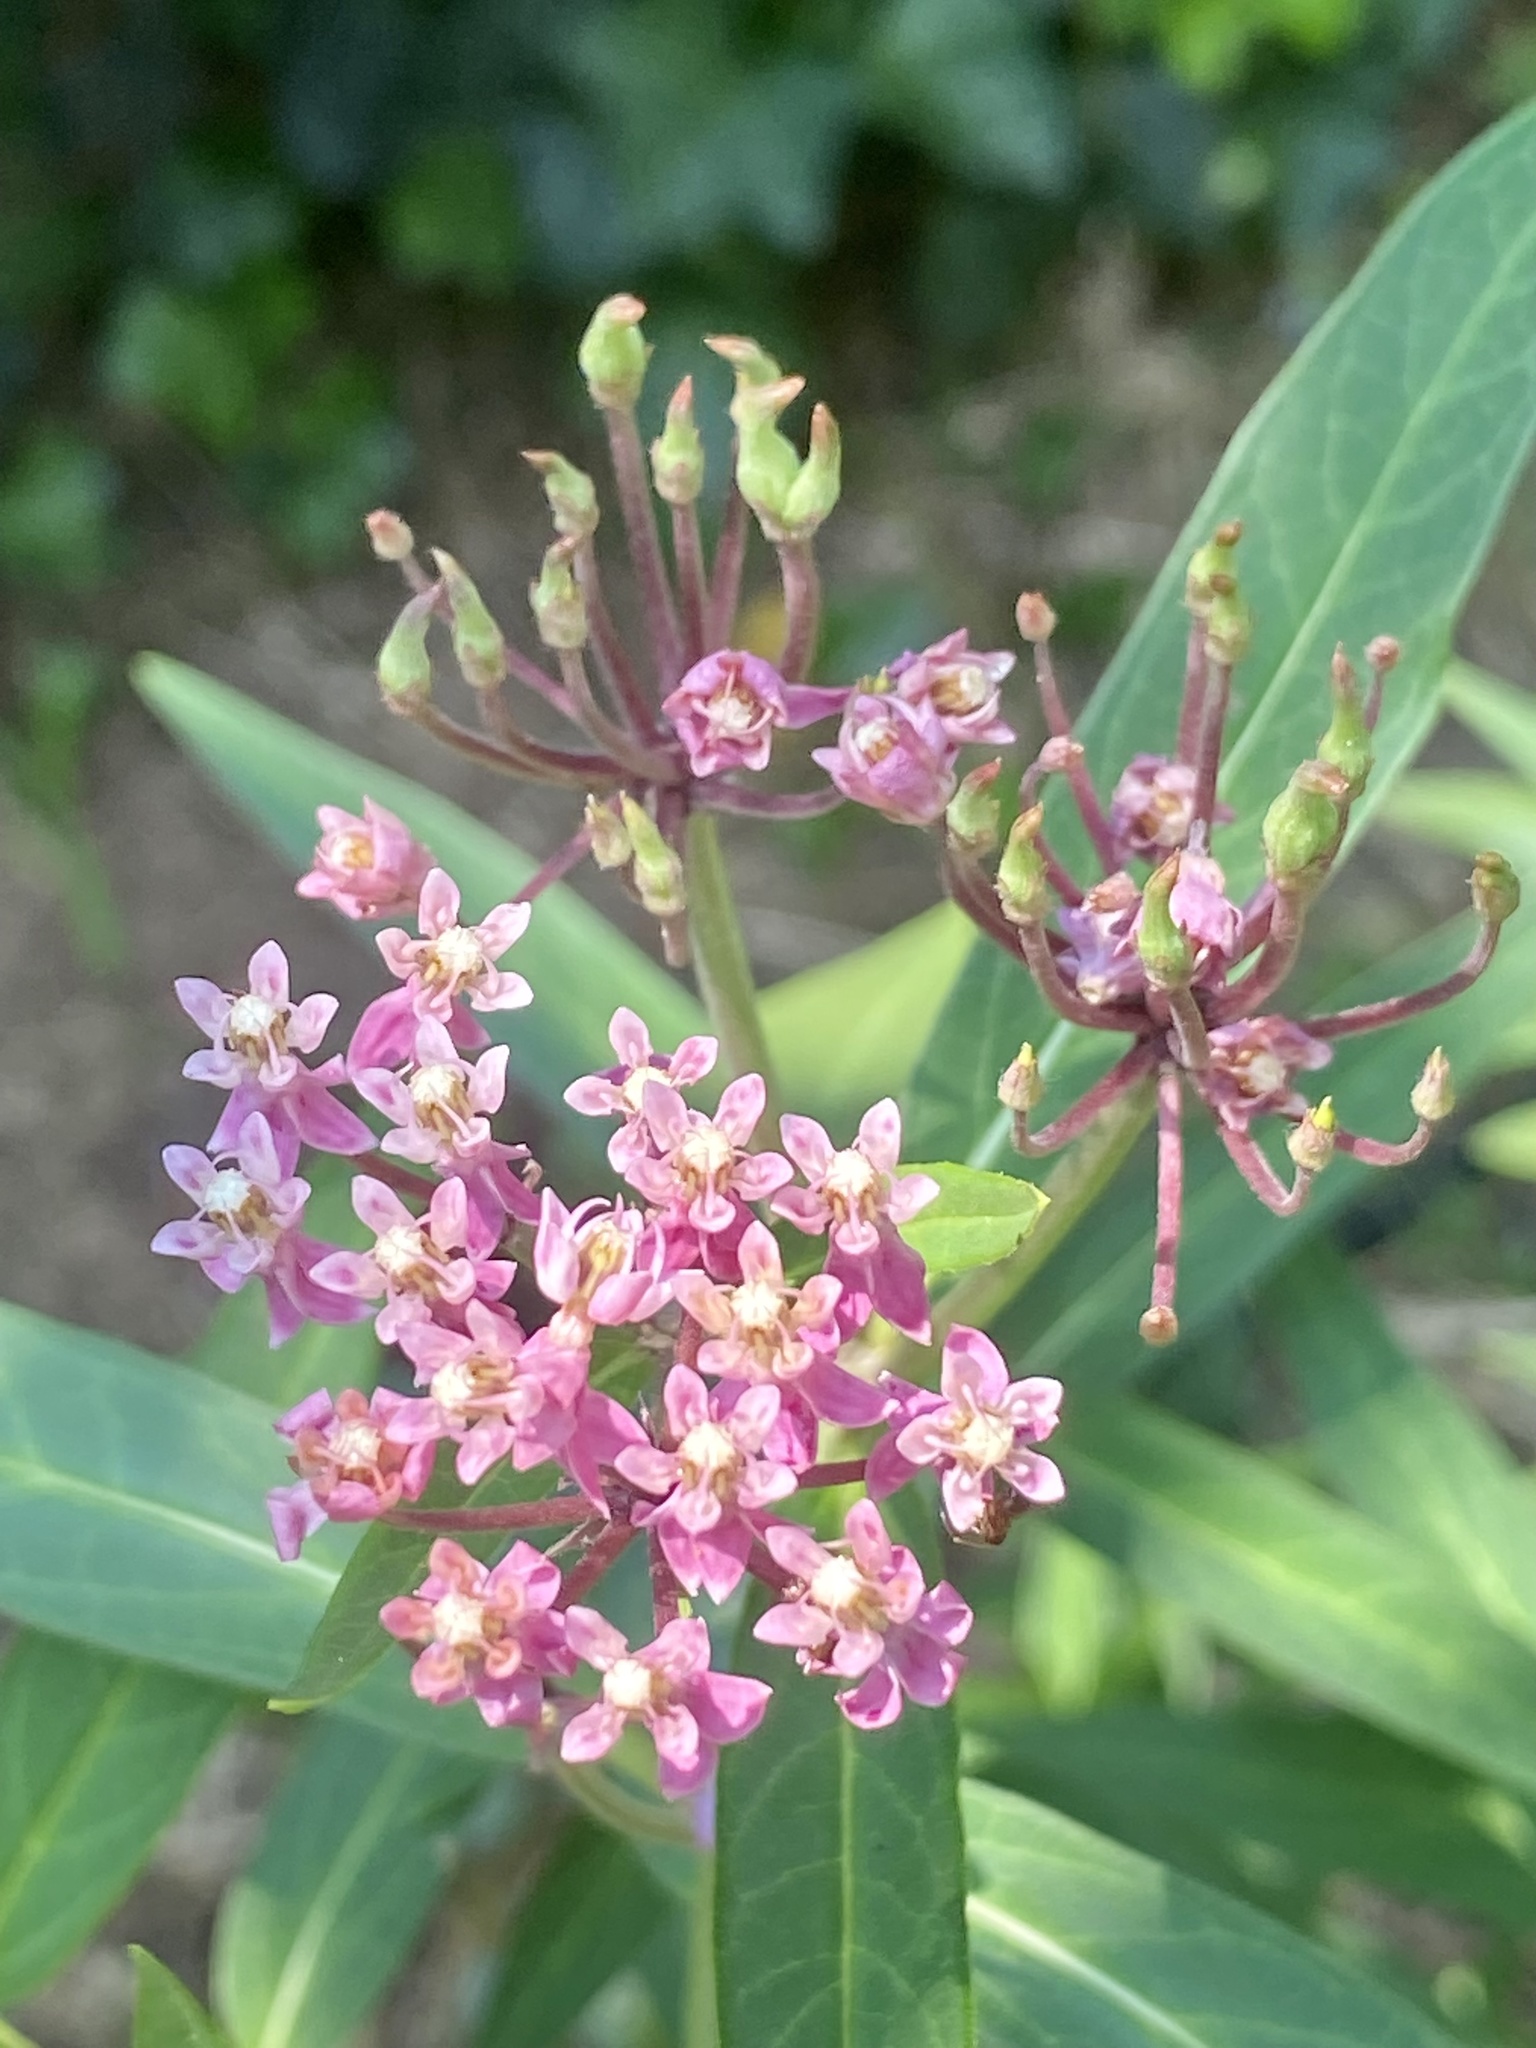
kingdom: Plantae
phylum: Tracheophyta
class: Magnoliopsida
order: Gentianales
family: Apocynaceae
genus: Asclepias
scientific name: Asclepias incarnata
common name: Swamp milkweed
